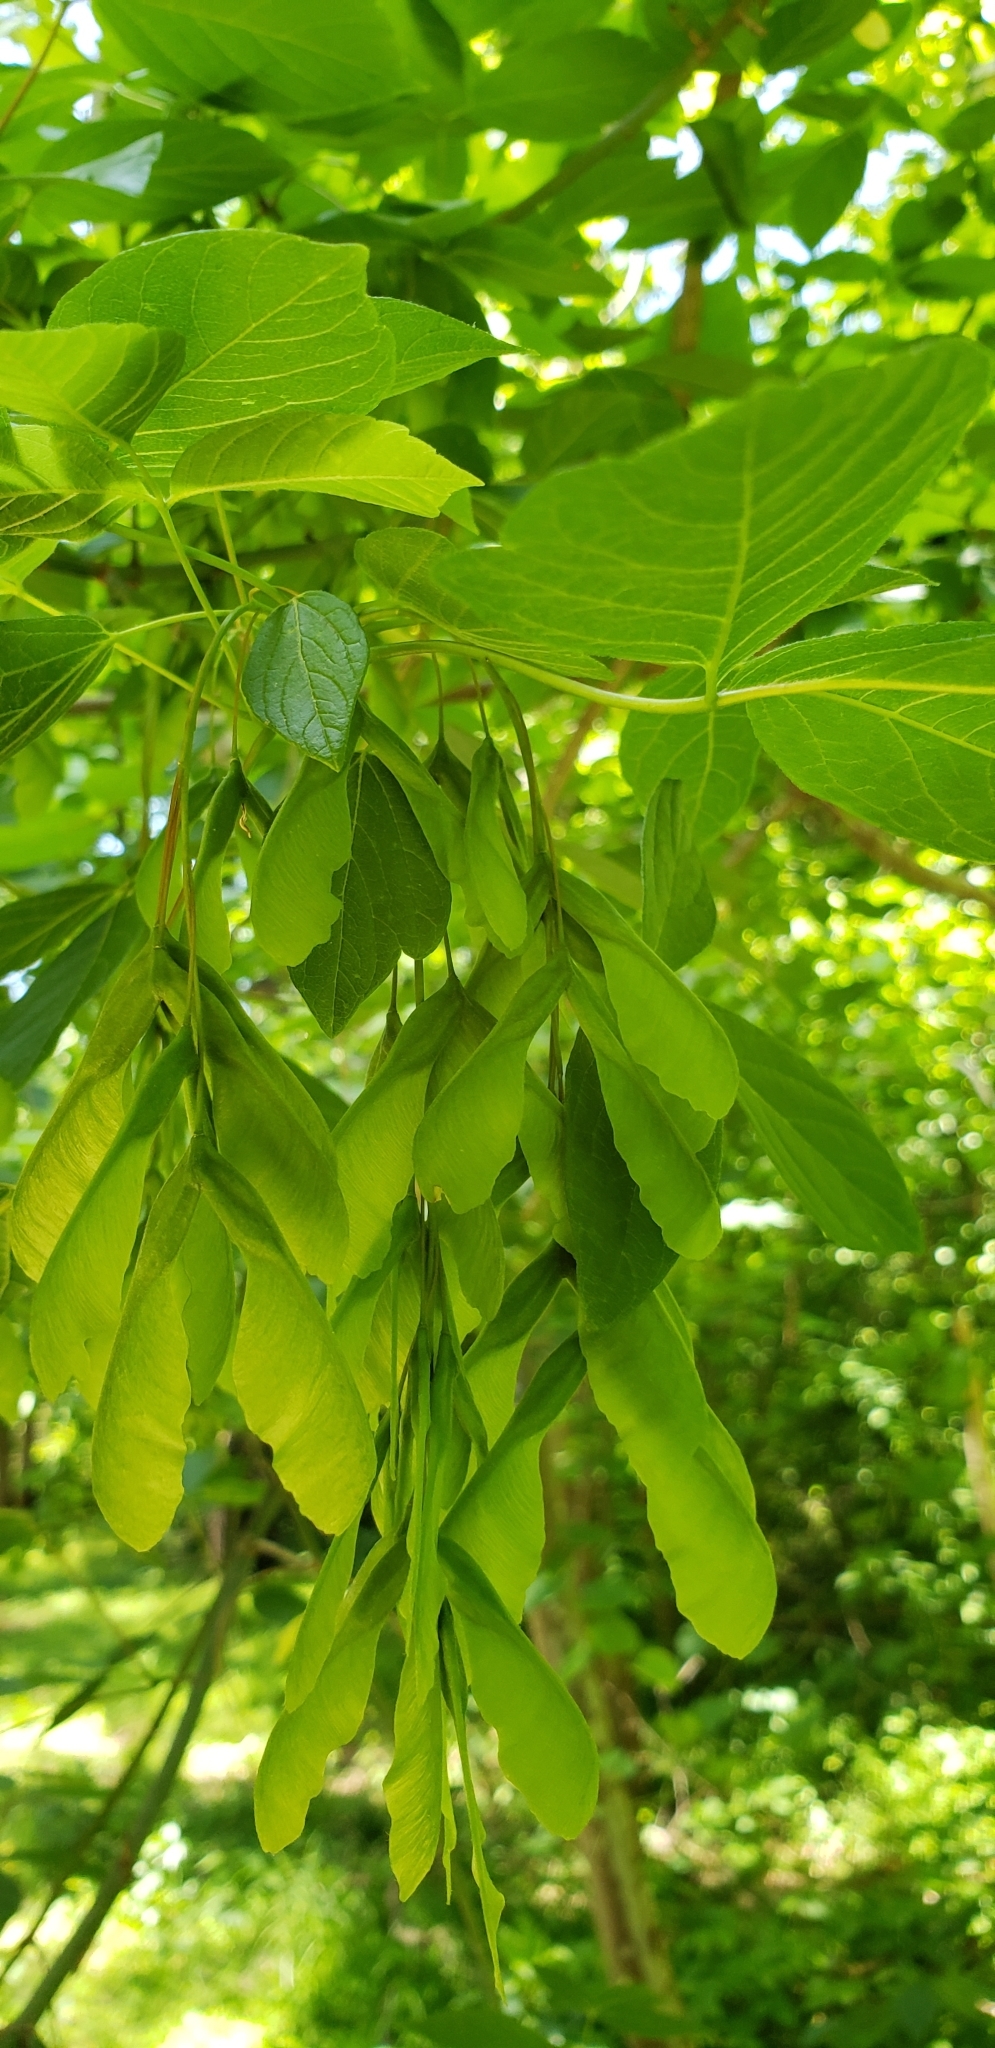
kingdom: Plantae
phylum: Tracheophyta
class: Magnoliopsida
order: Sapindales
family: Sapindaceae
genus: Acer
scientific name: Acer negundo
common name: Ashleaf maple
